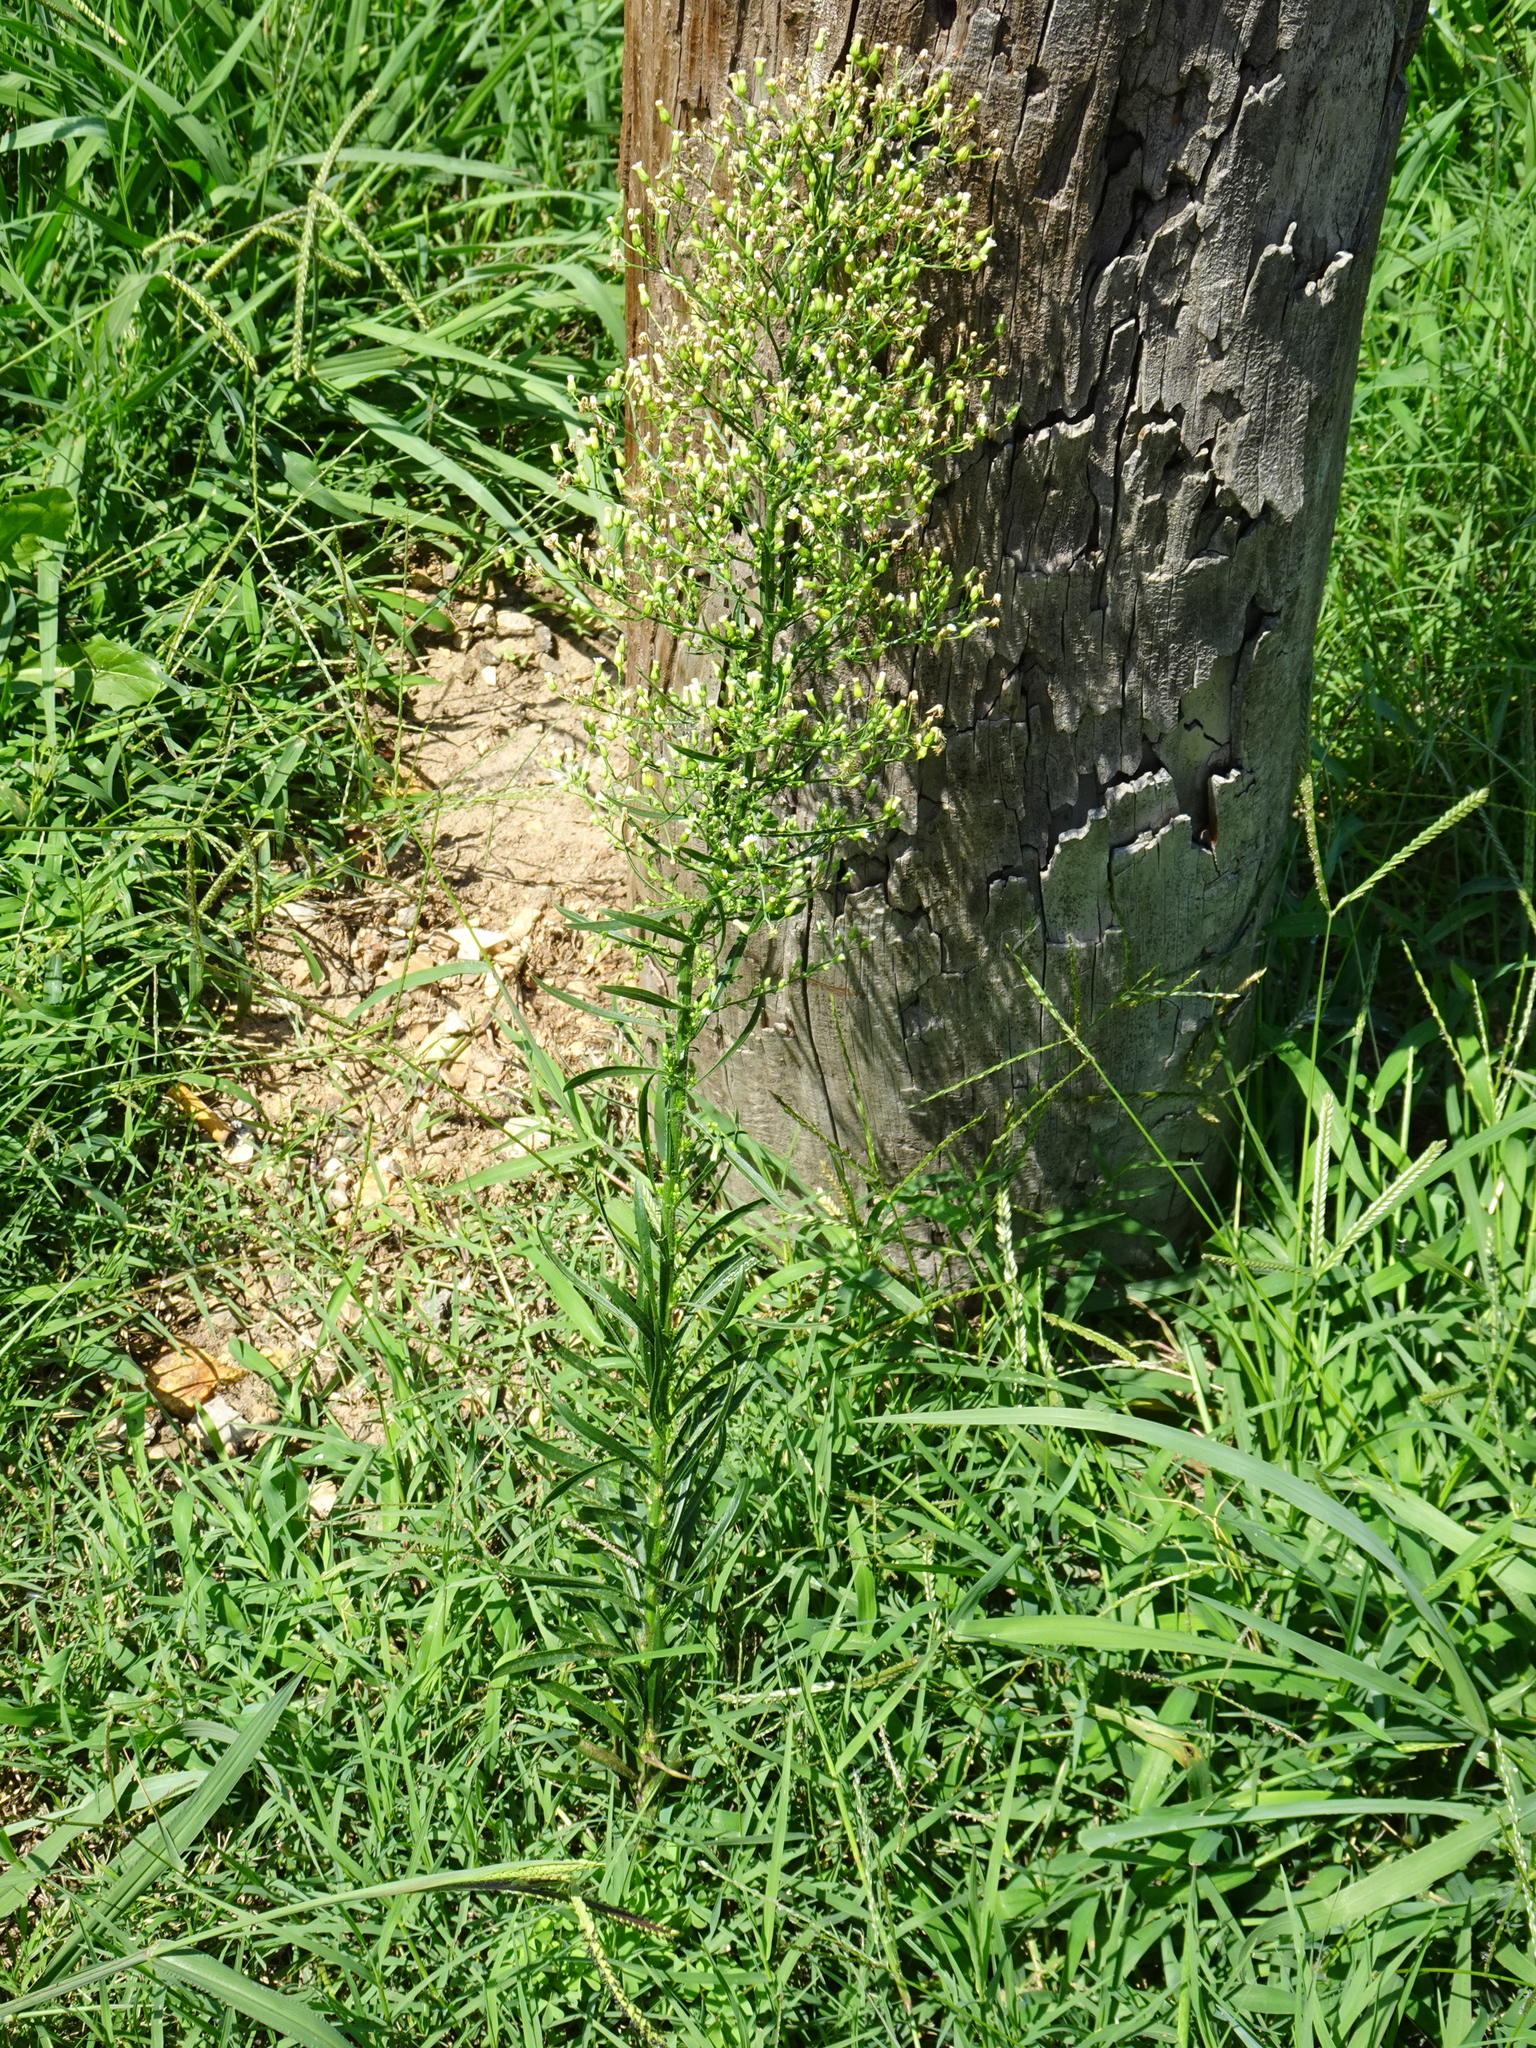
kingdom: Plantae
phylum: Tracheophyta
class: Magnoliopsida
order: Asterales
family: Asteraceae
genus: Erigeron
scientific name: Erigeron canadensis
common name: Canadian fleabane
